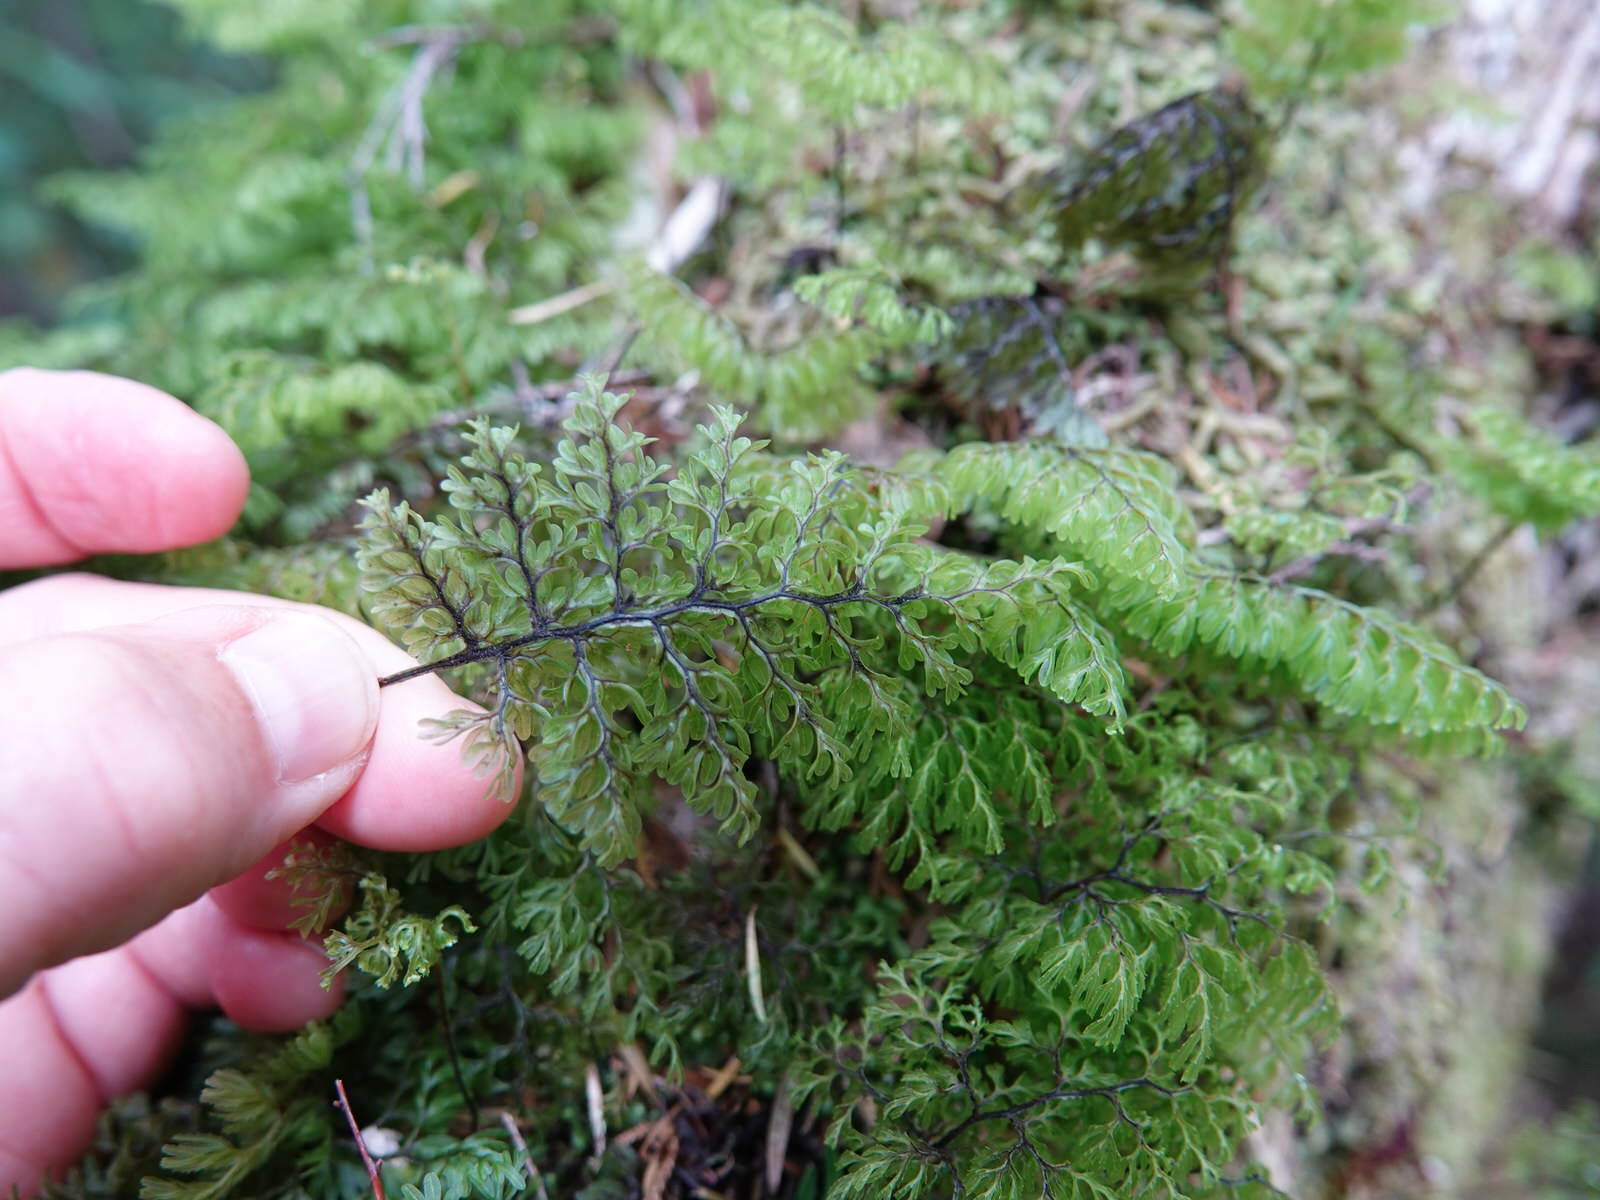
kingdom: Plantae
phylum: Tracheophyta
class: Polypodiopsida
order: Hymenophyllales
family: Hymenophyllaceae
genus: Hymenophyllum
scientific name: Hymenophyllum sanguinolentum
